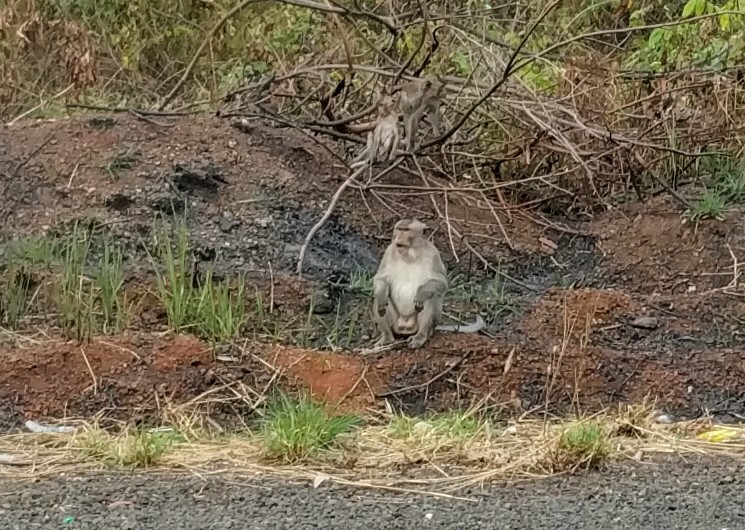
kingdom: Animalia
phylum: Chordata
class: Mammalia
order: Primates
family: Cercopithecidae
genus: Macaca
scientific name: Macaca fascicularis
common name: Crab-eating macaque
